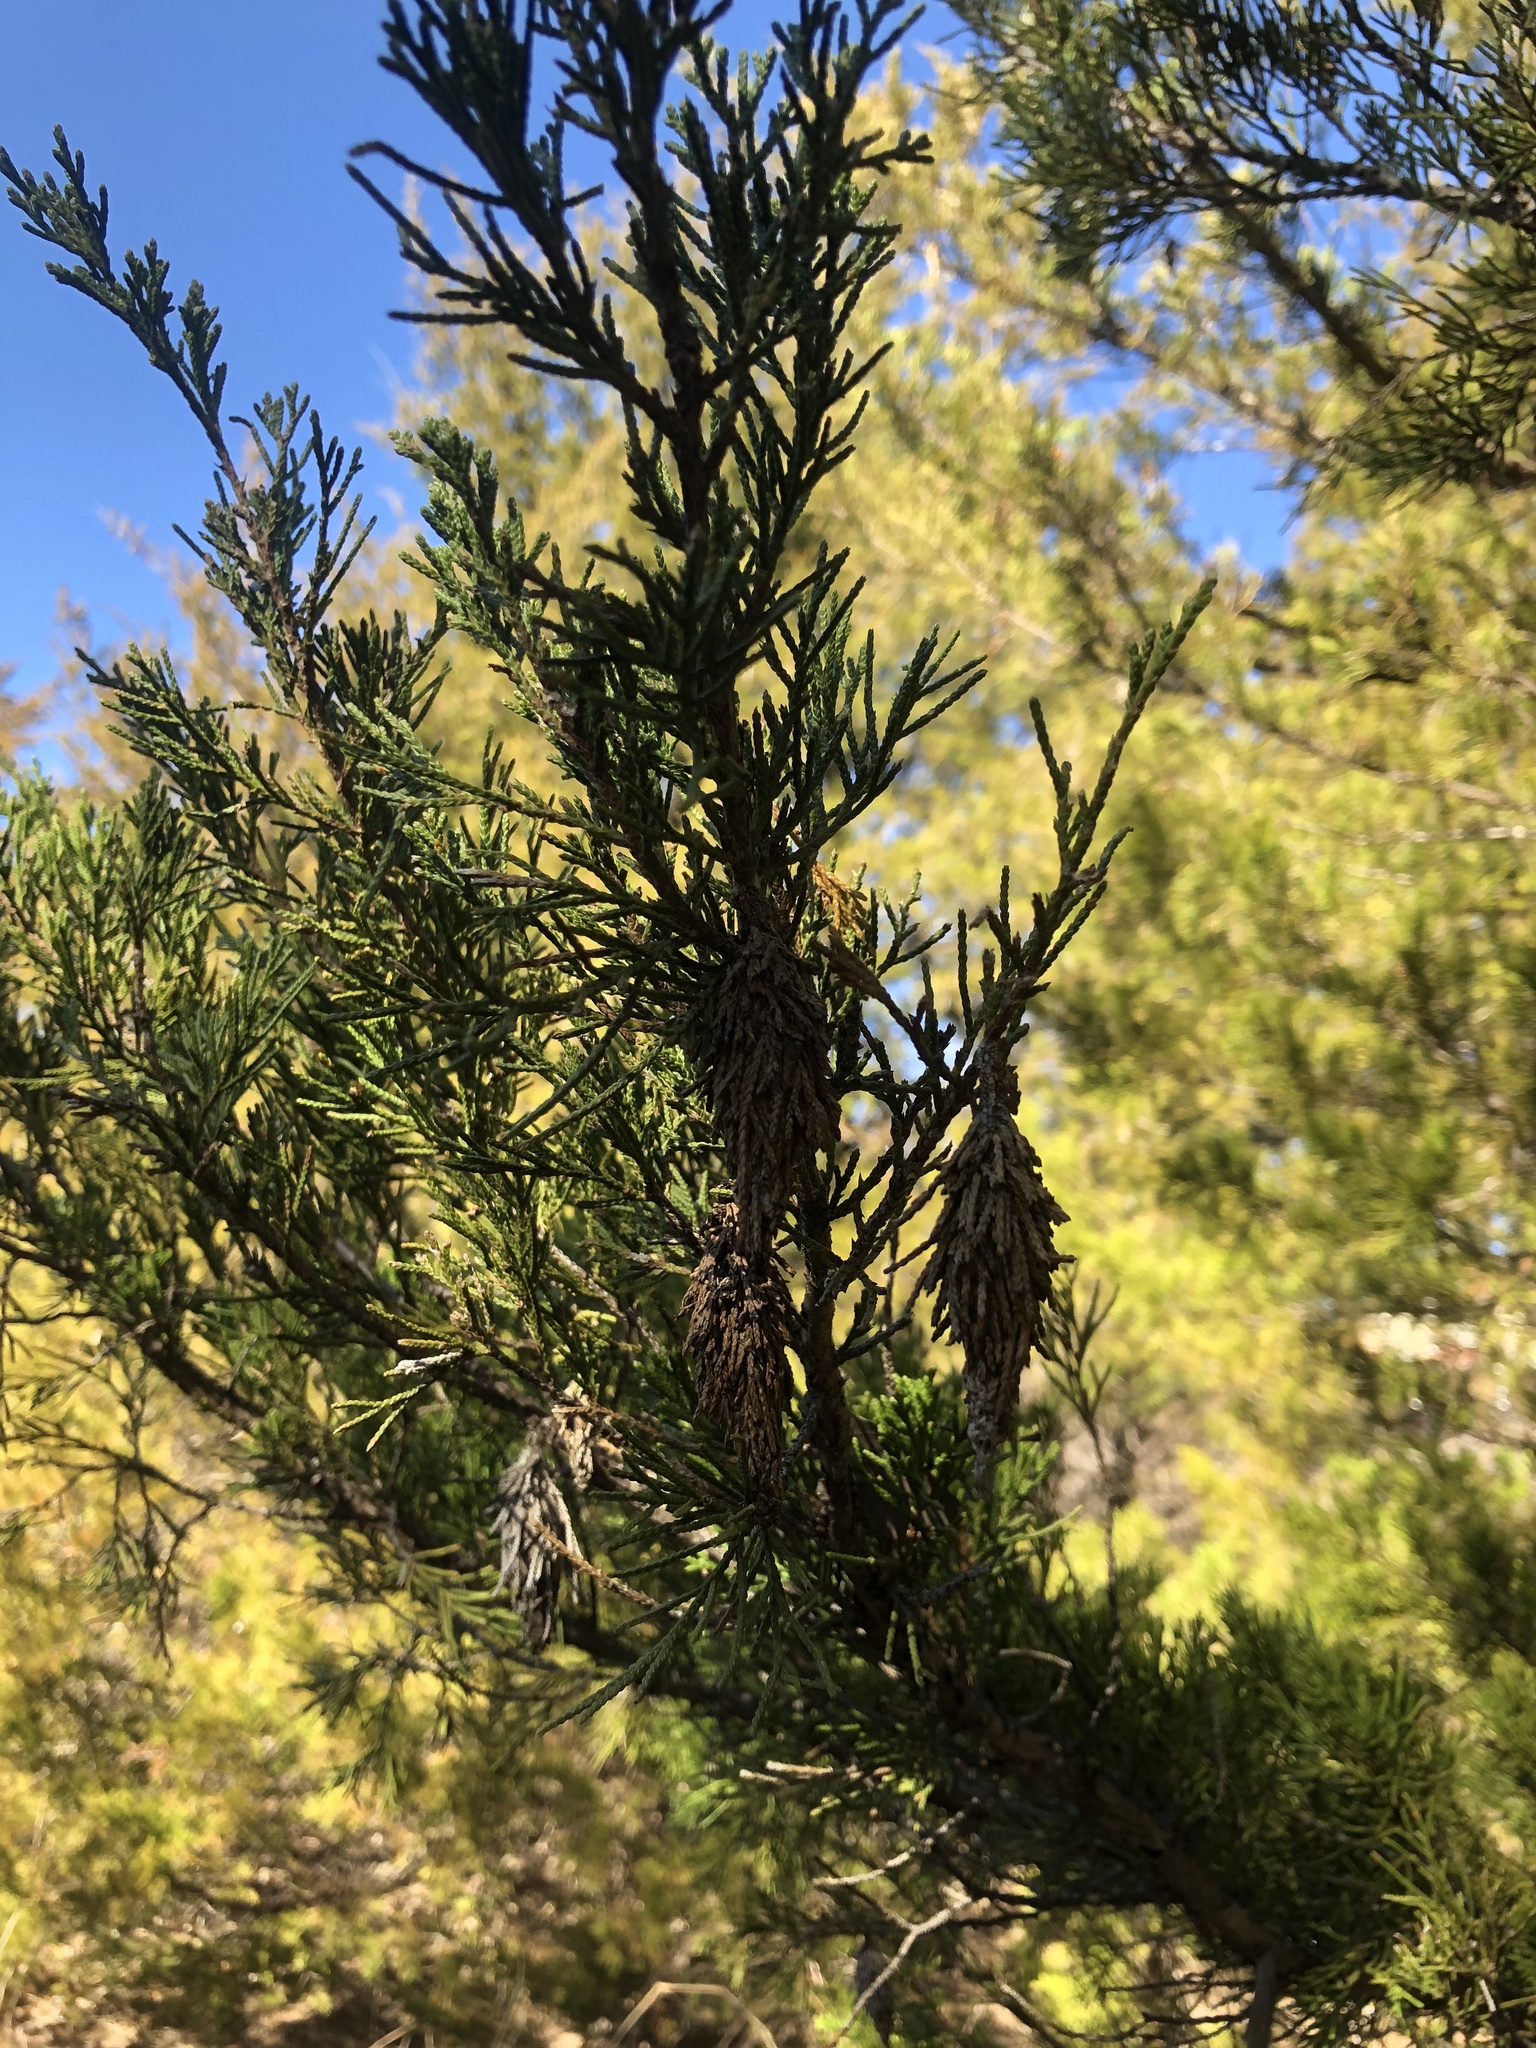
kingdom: Animalia
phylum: Arthropoda
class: Insecta
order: Lepidoptera
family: Psychidae
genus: Thyridopteryx
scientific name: Thyridopteryx ephemeraeformis
